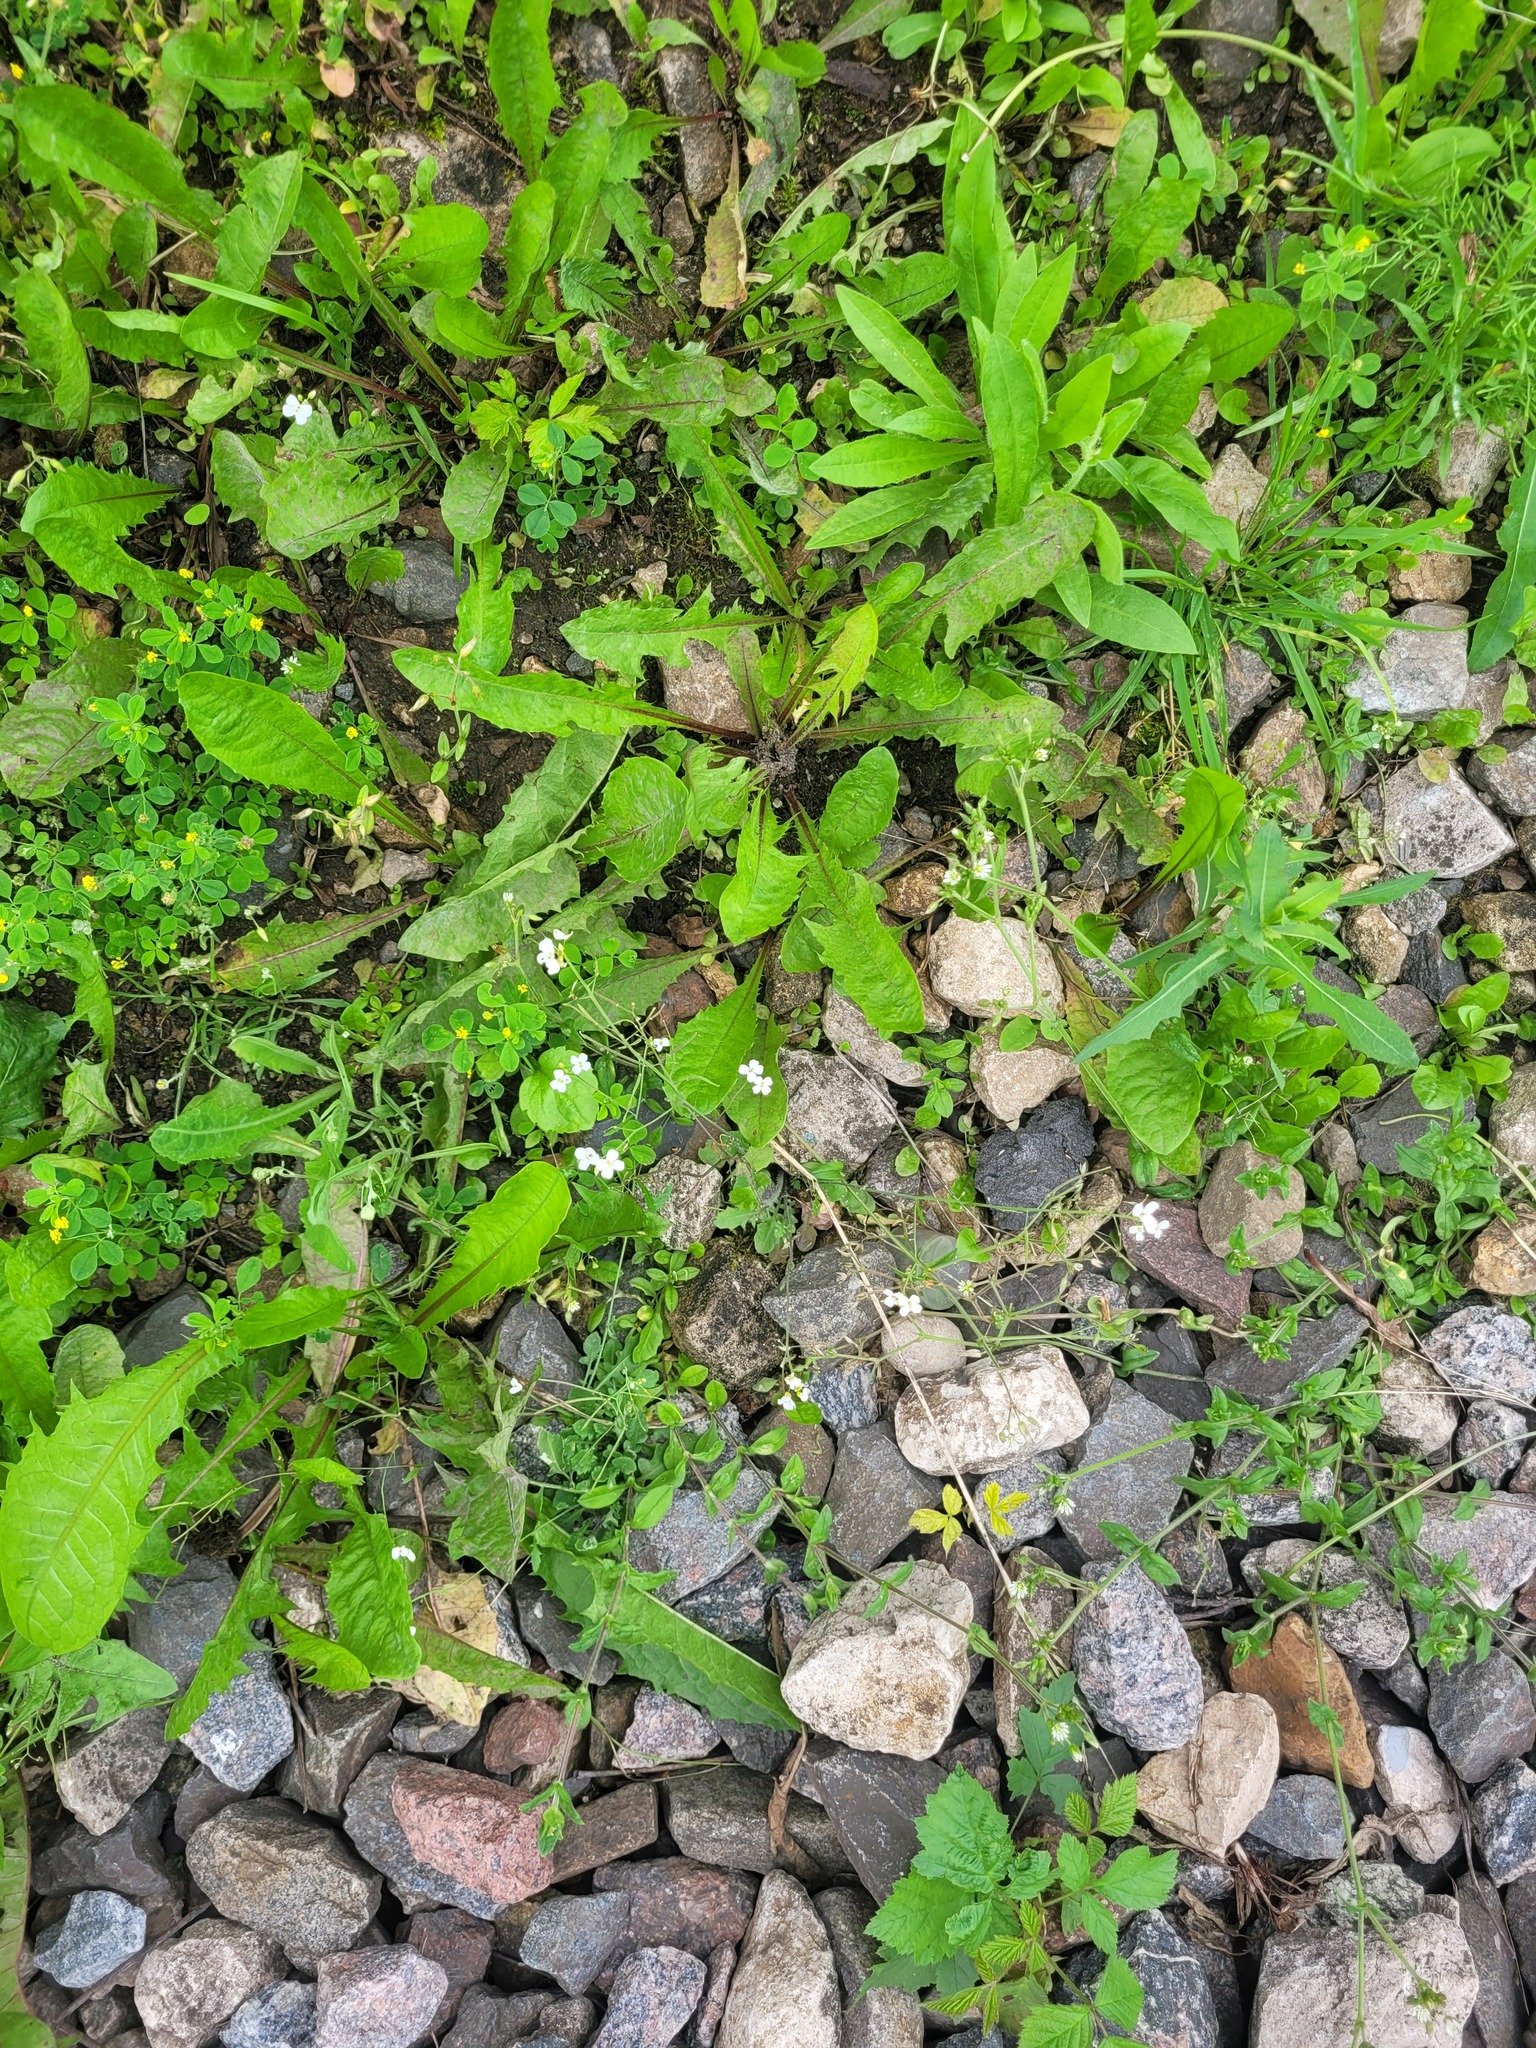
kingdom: Plantae
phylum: Tracheophyta
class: Magnoliopsida
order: Brassicales
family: Brassicaceae
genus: Arabidopsis
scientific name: Arabidopsis arenosa
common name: Sand rock-cress
